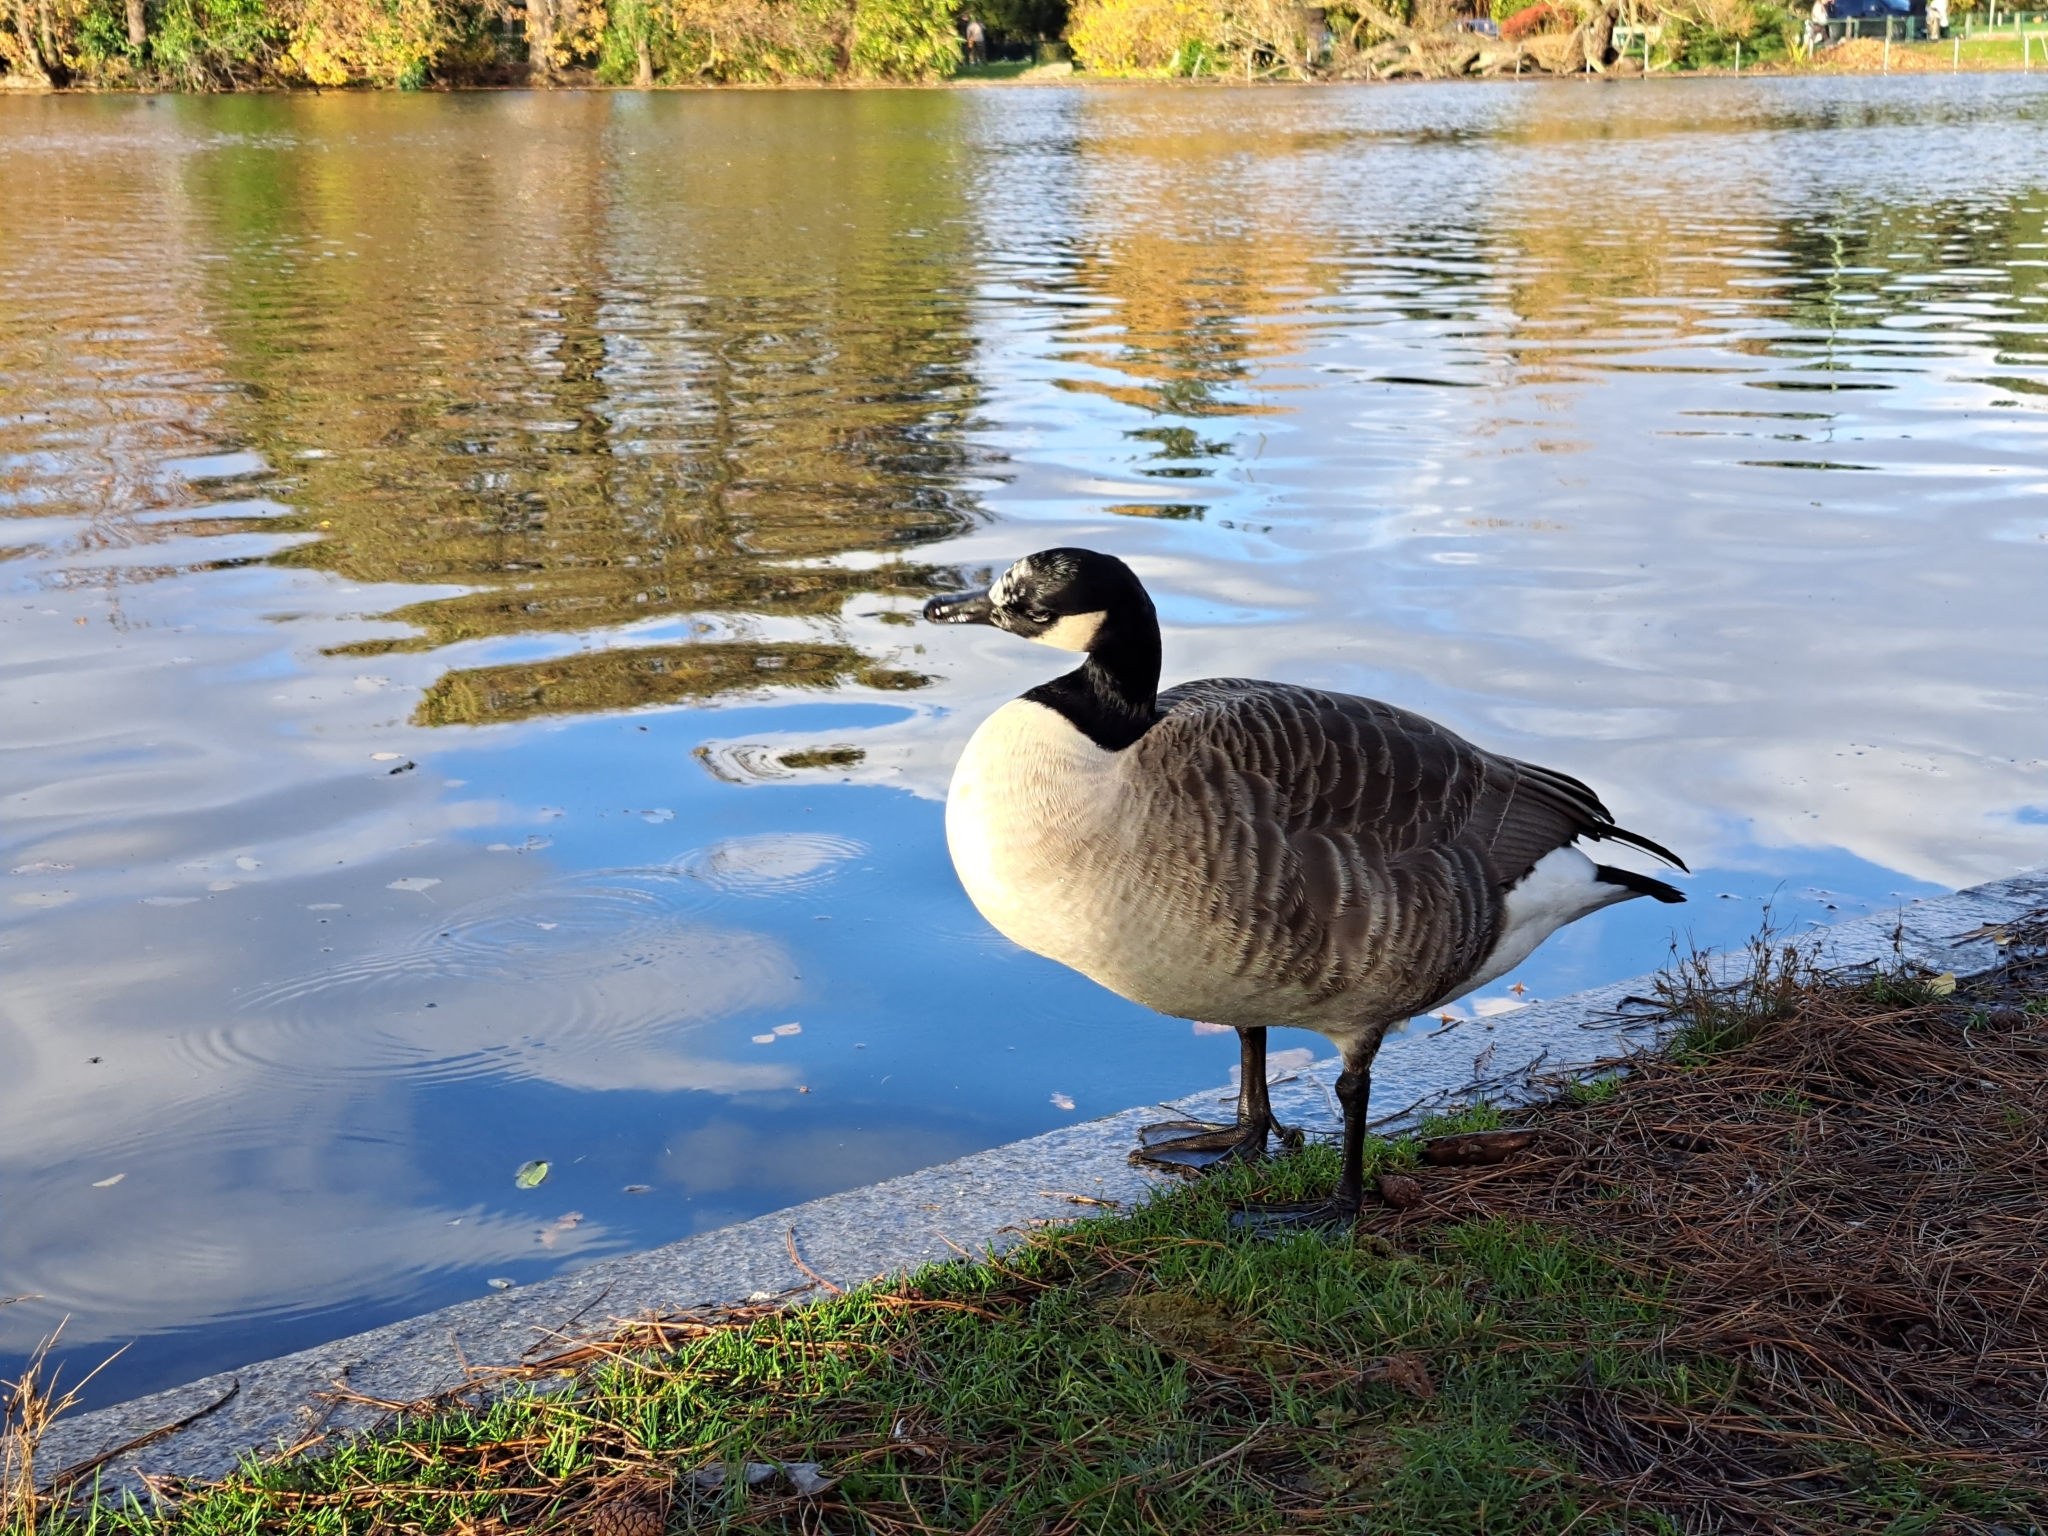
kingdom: Animalia
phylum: Chordata
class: Aves
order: Anseriformes
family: Anatidae
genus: Branta
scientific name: Branta canadensis
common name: Canada goose
